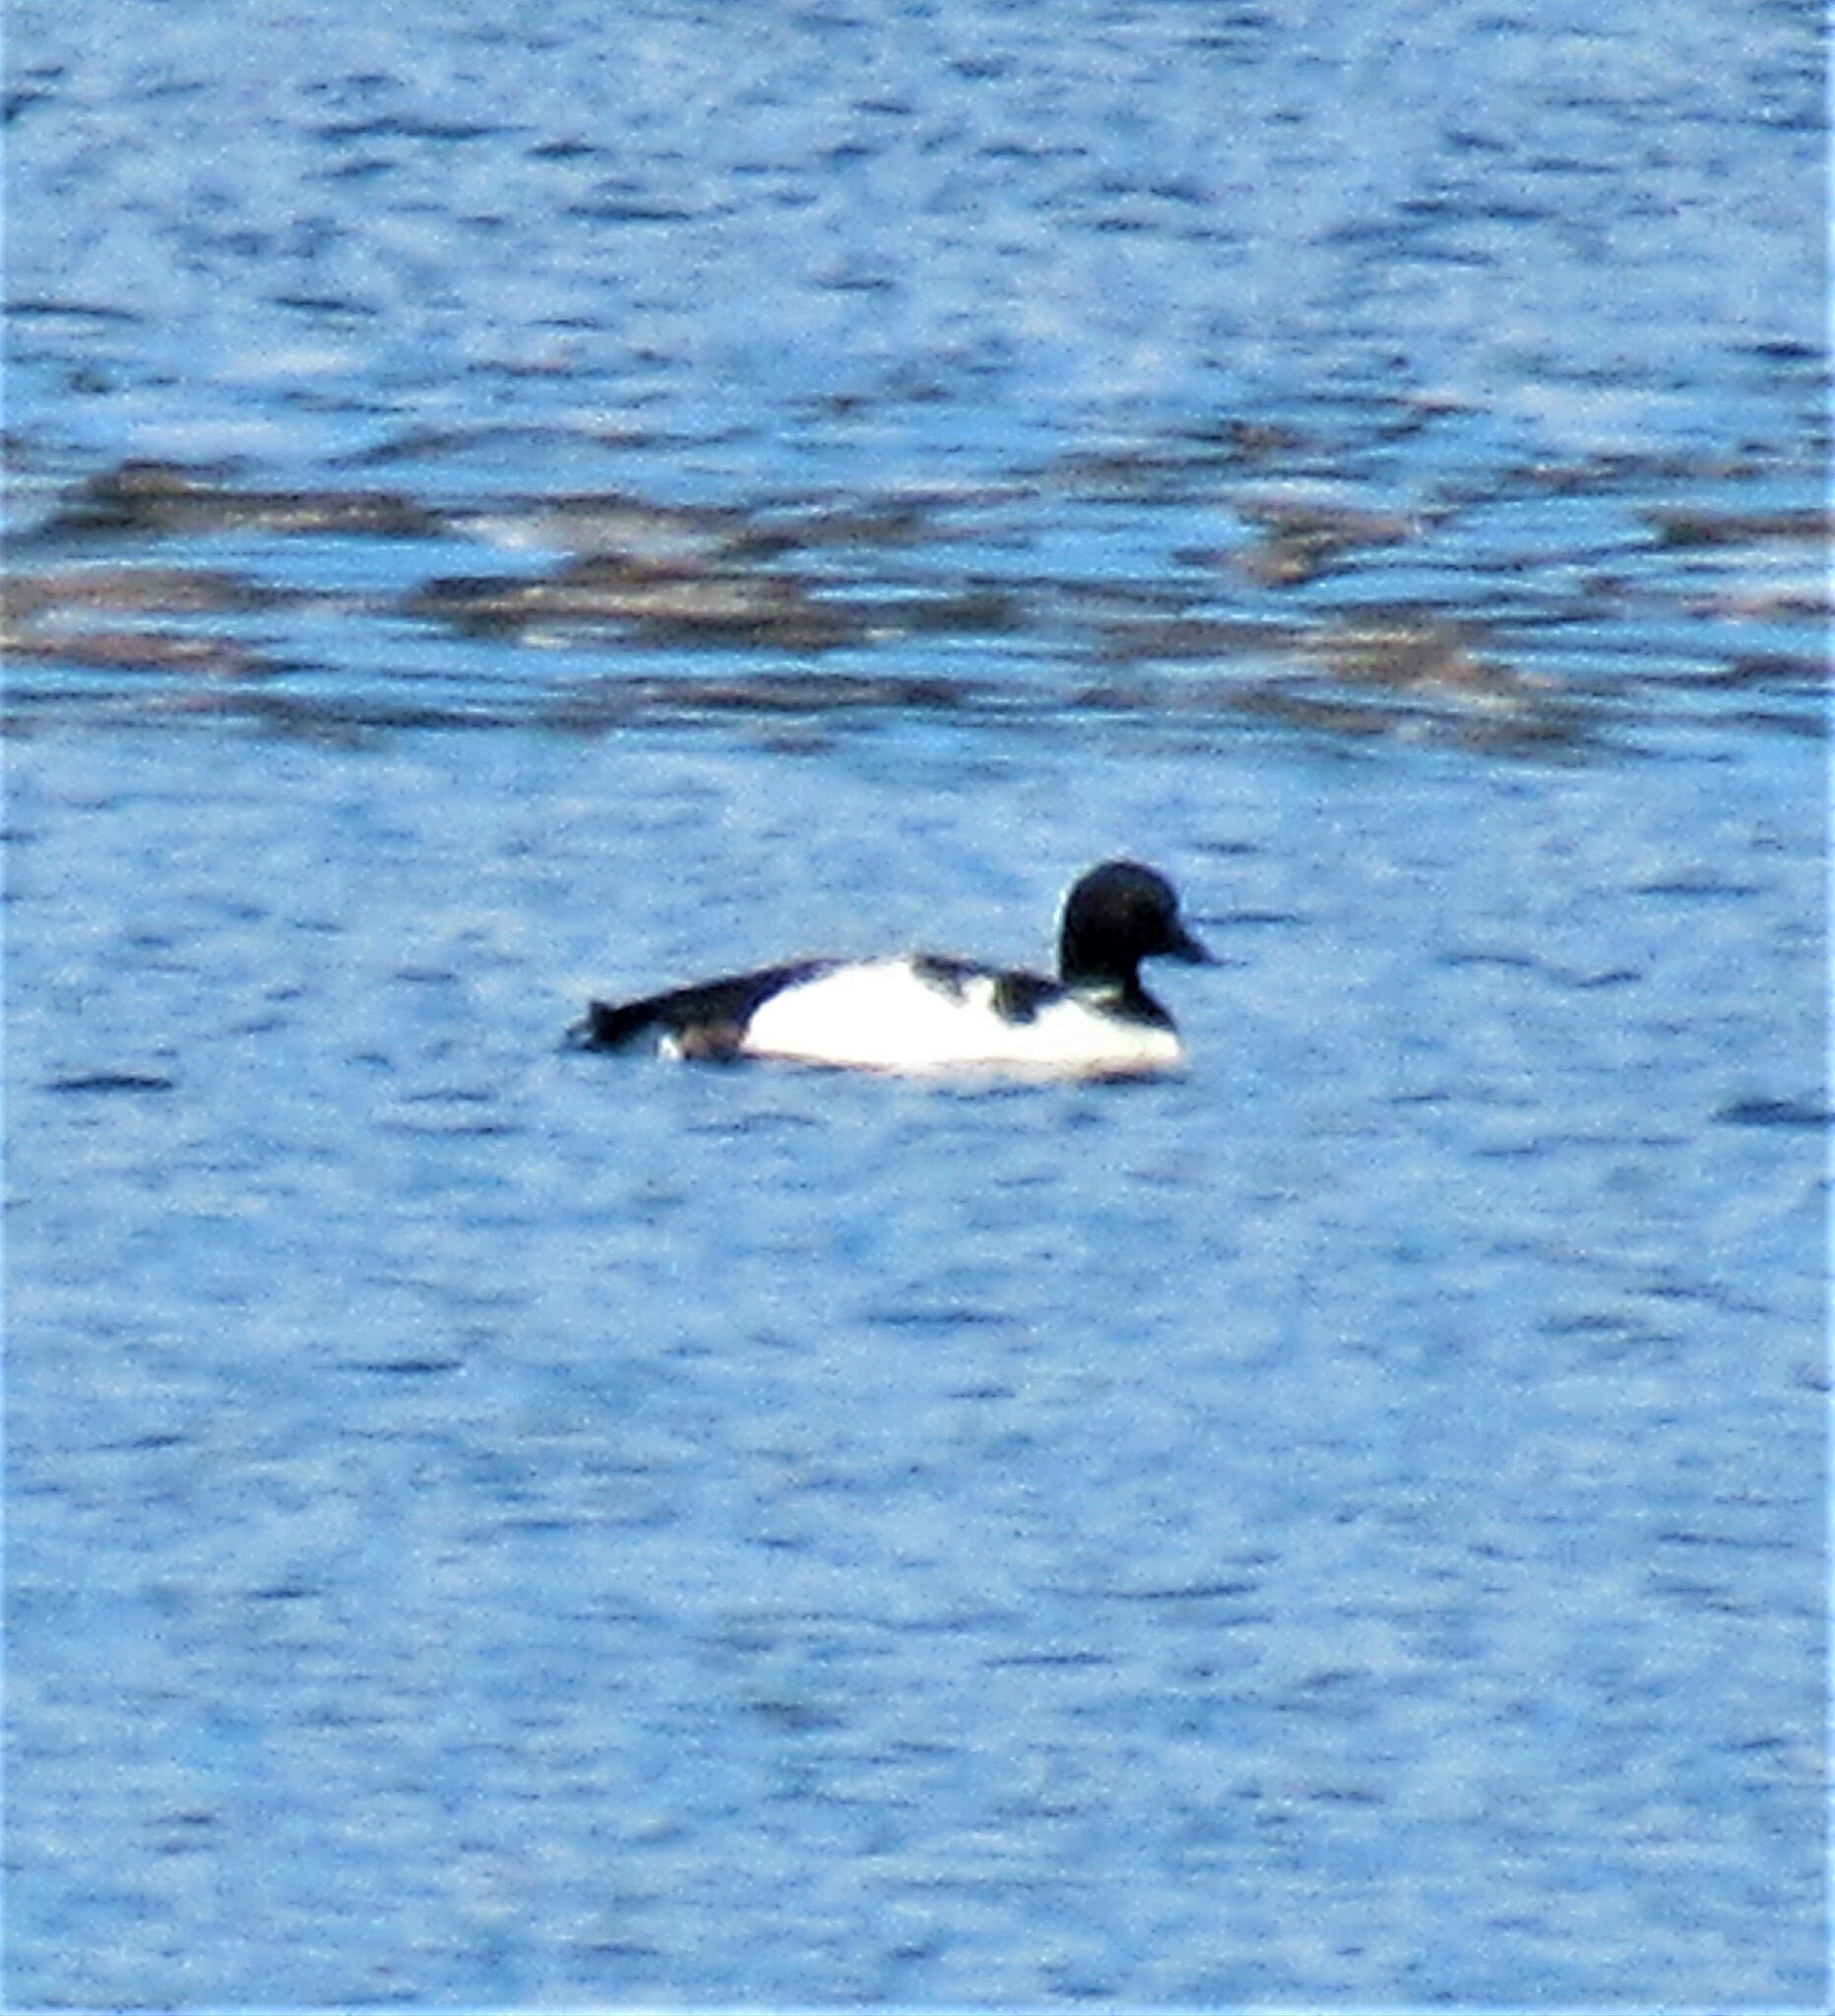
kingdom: Animalia
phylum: Chordata
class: Aves
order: Gaviiformes
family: Gaviidae
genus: Gavia
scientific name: Gavia immer
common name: Common loon
